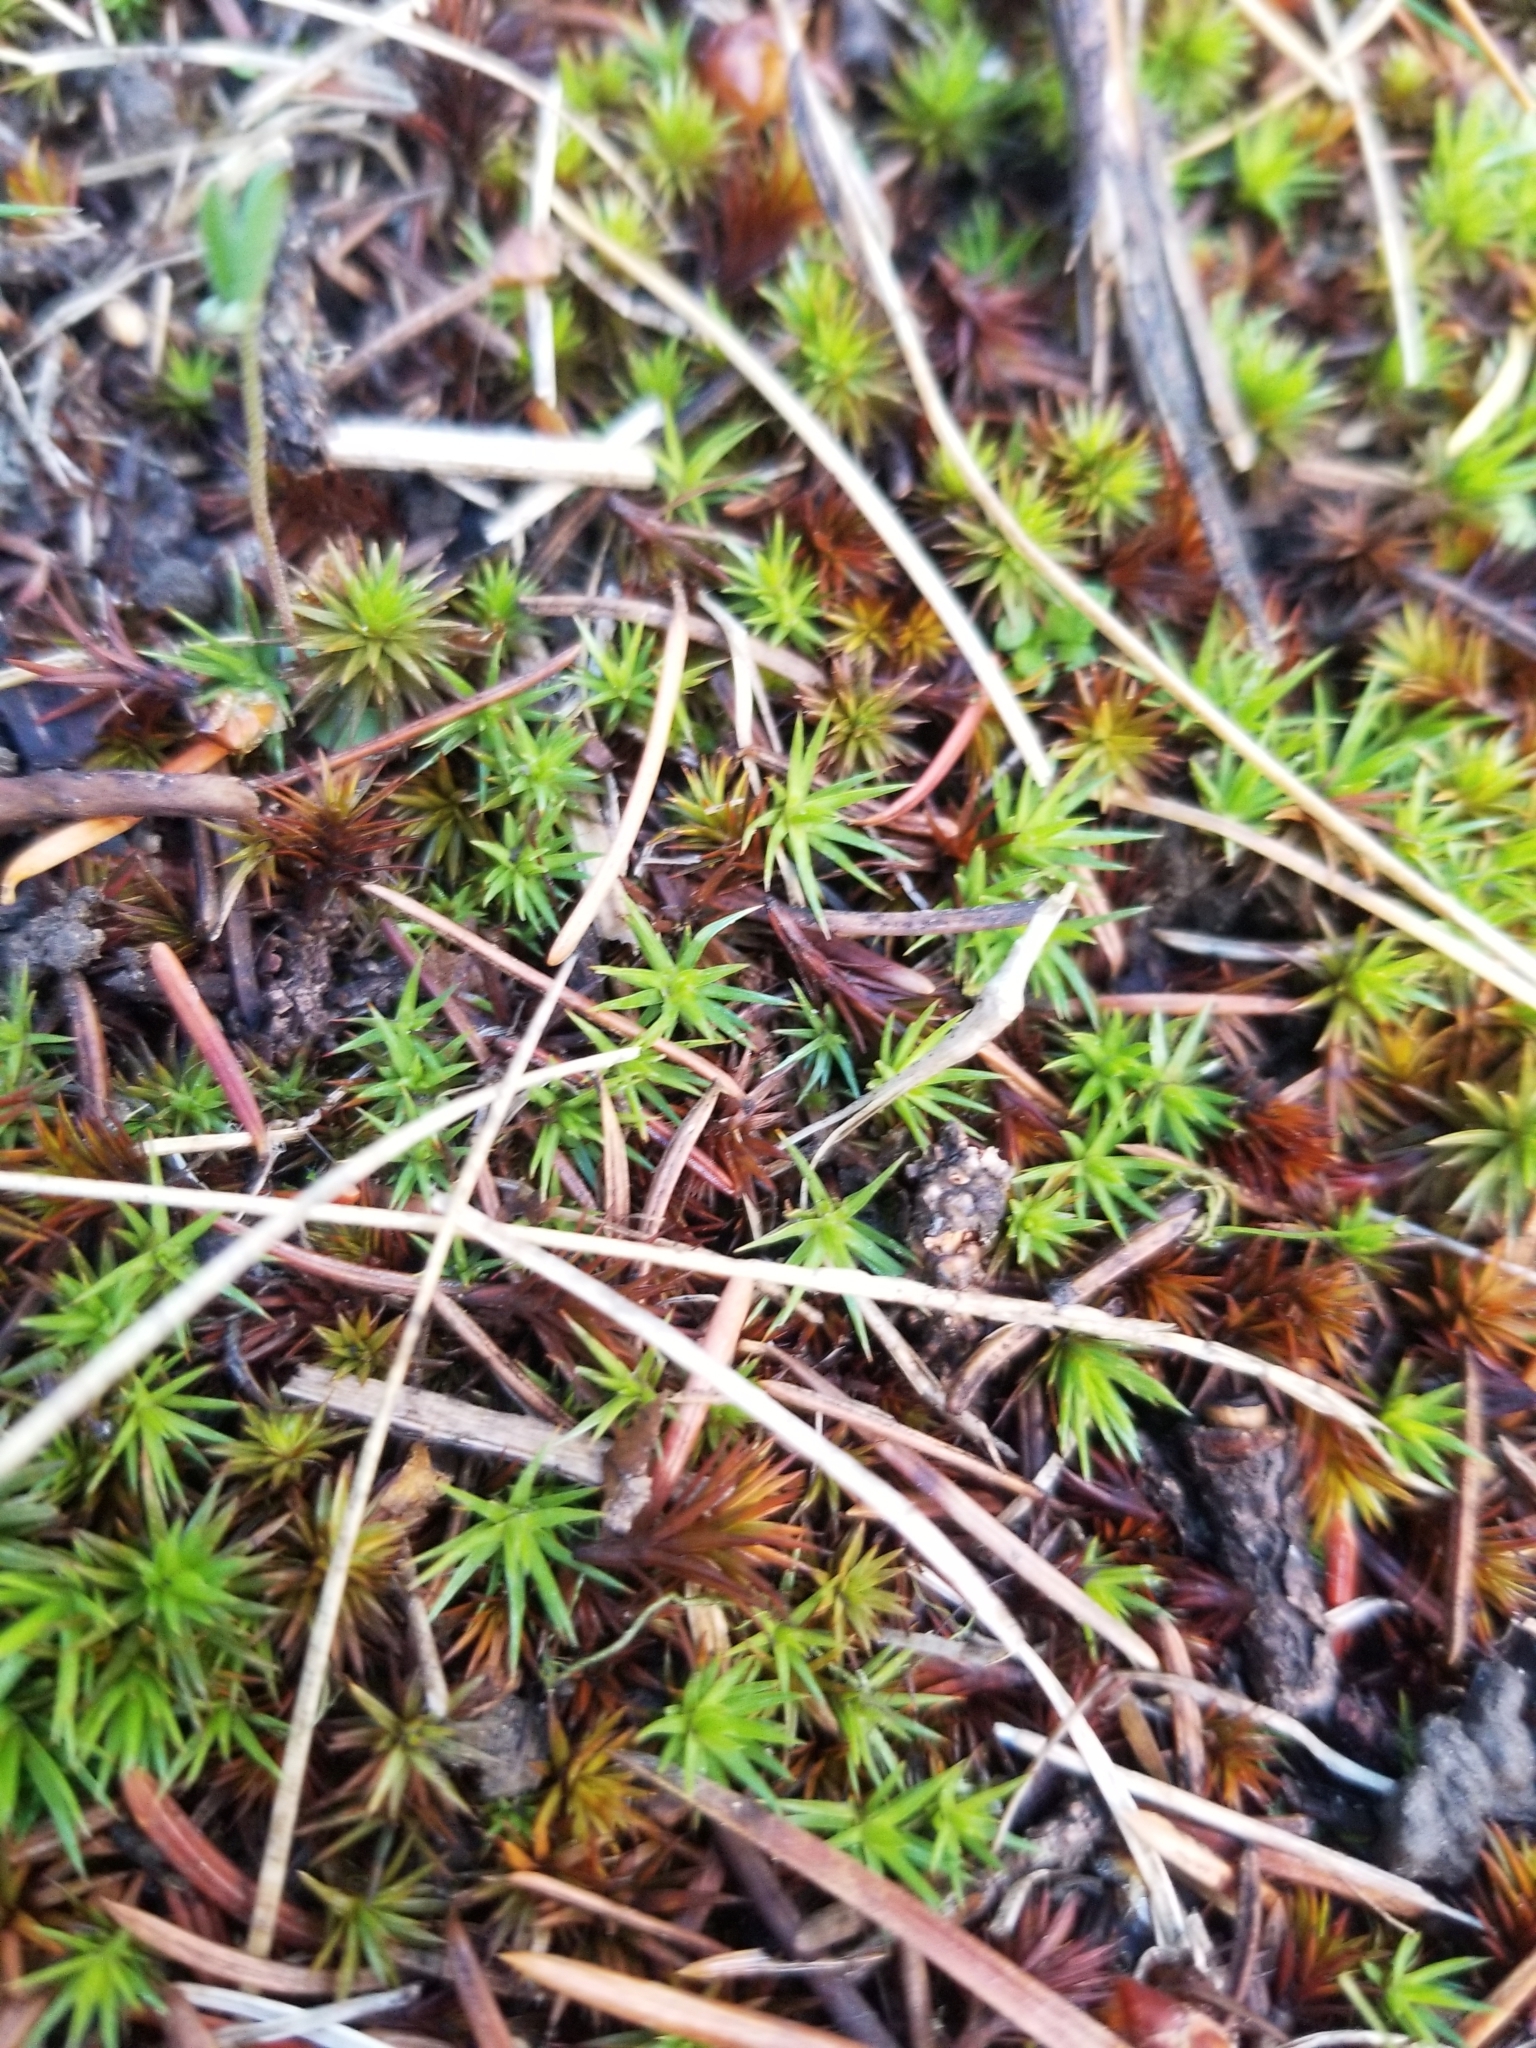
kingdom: Plantae
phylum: Bryophyta
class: Polytrichopsida
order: Polytrichales
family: Polytrichaceae
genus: Polytrichum
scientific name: Polytrichum juniperinum
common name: Juniper haircap moss
